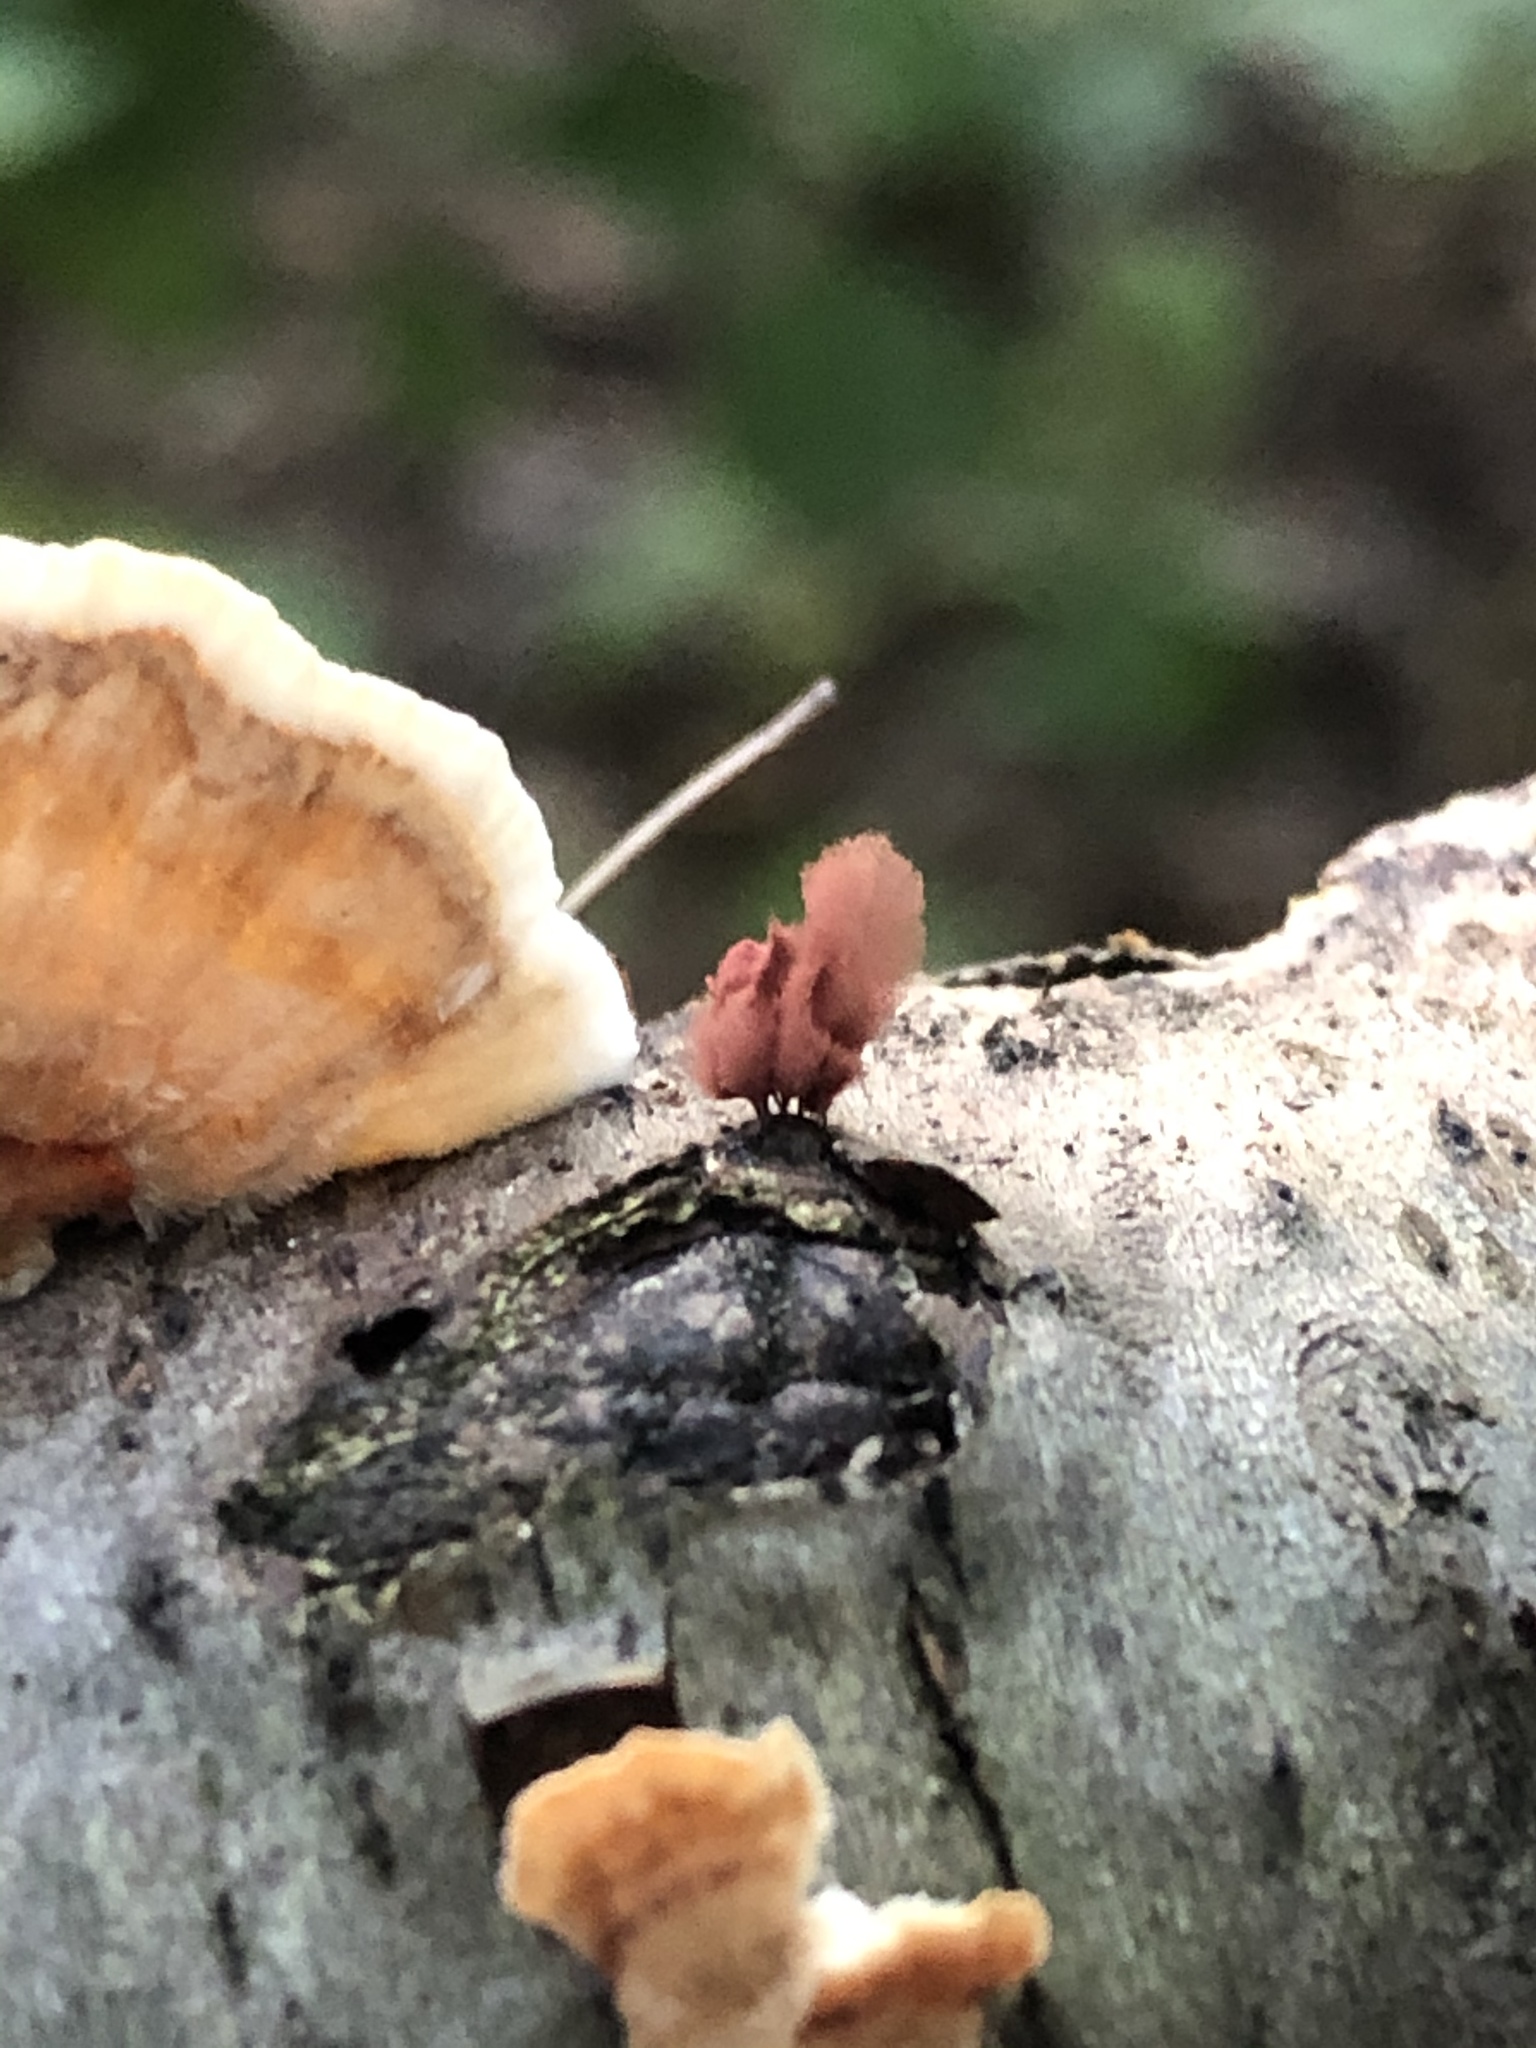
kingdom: Protozoa
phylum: Mycetozoa
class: Myxomycetes
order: Trichiales
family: Arcyriaceae
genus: Arcyria
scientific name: Arcyria denudata
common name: Carnival candy slime mold
